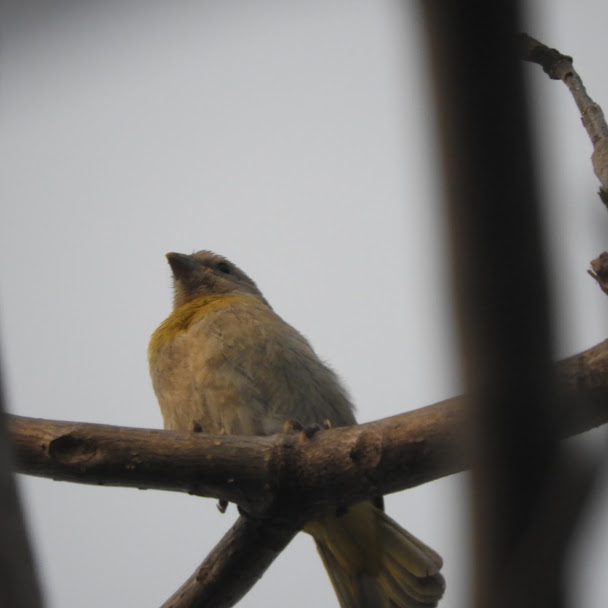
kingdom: Animalia
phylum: Chordata
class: Aves
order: Passeriformes
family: Thraupidae
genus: Sicalis
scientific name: Sicalis flaveola
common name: Saffron finch
